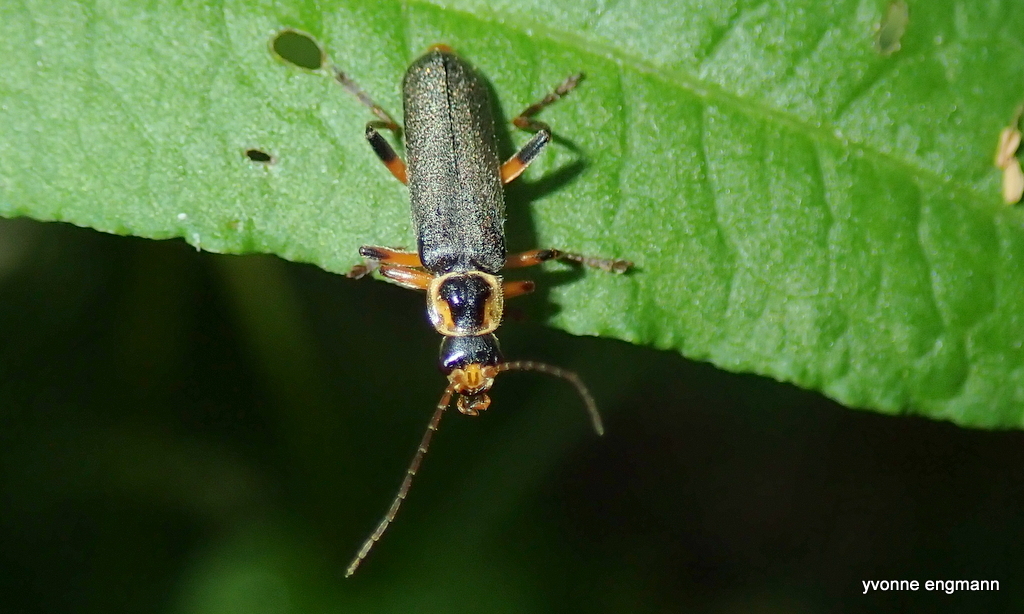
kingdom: Animalia
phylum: Arthropoda
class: Insecta
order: Coleoptera
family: Cantharidae
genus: Cantharis
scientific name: Cantharis nigricans
